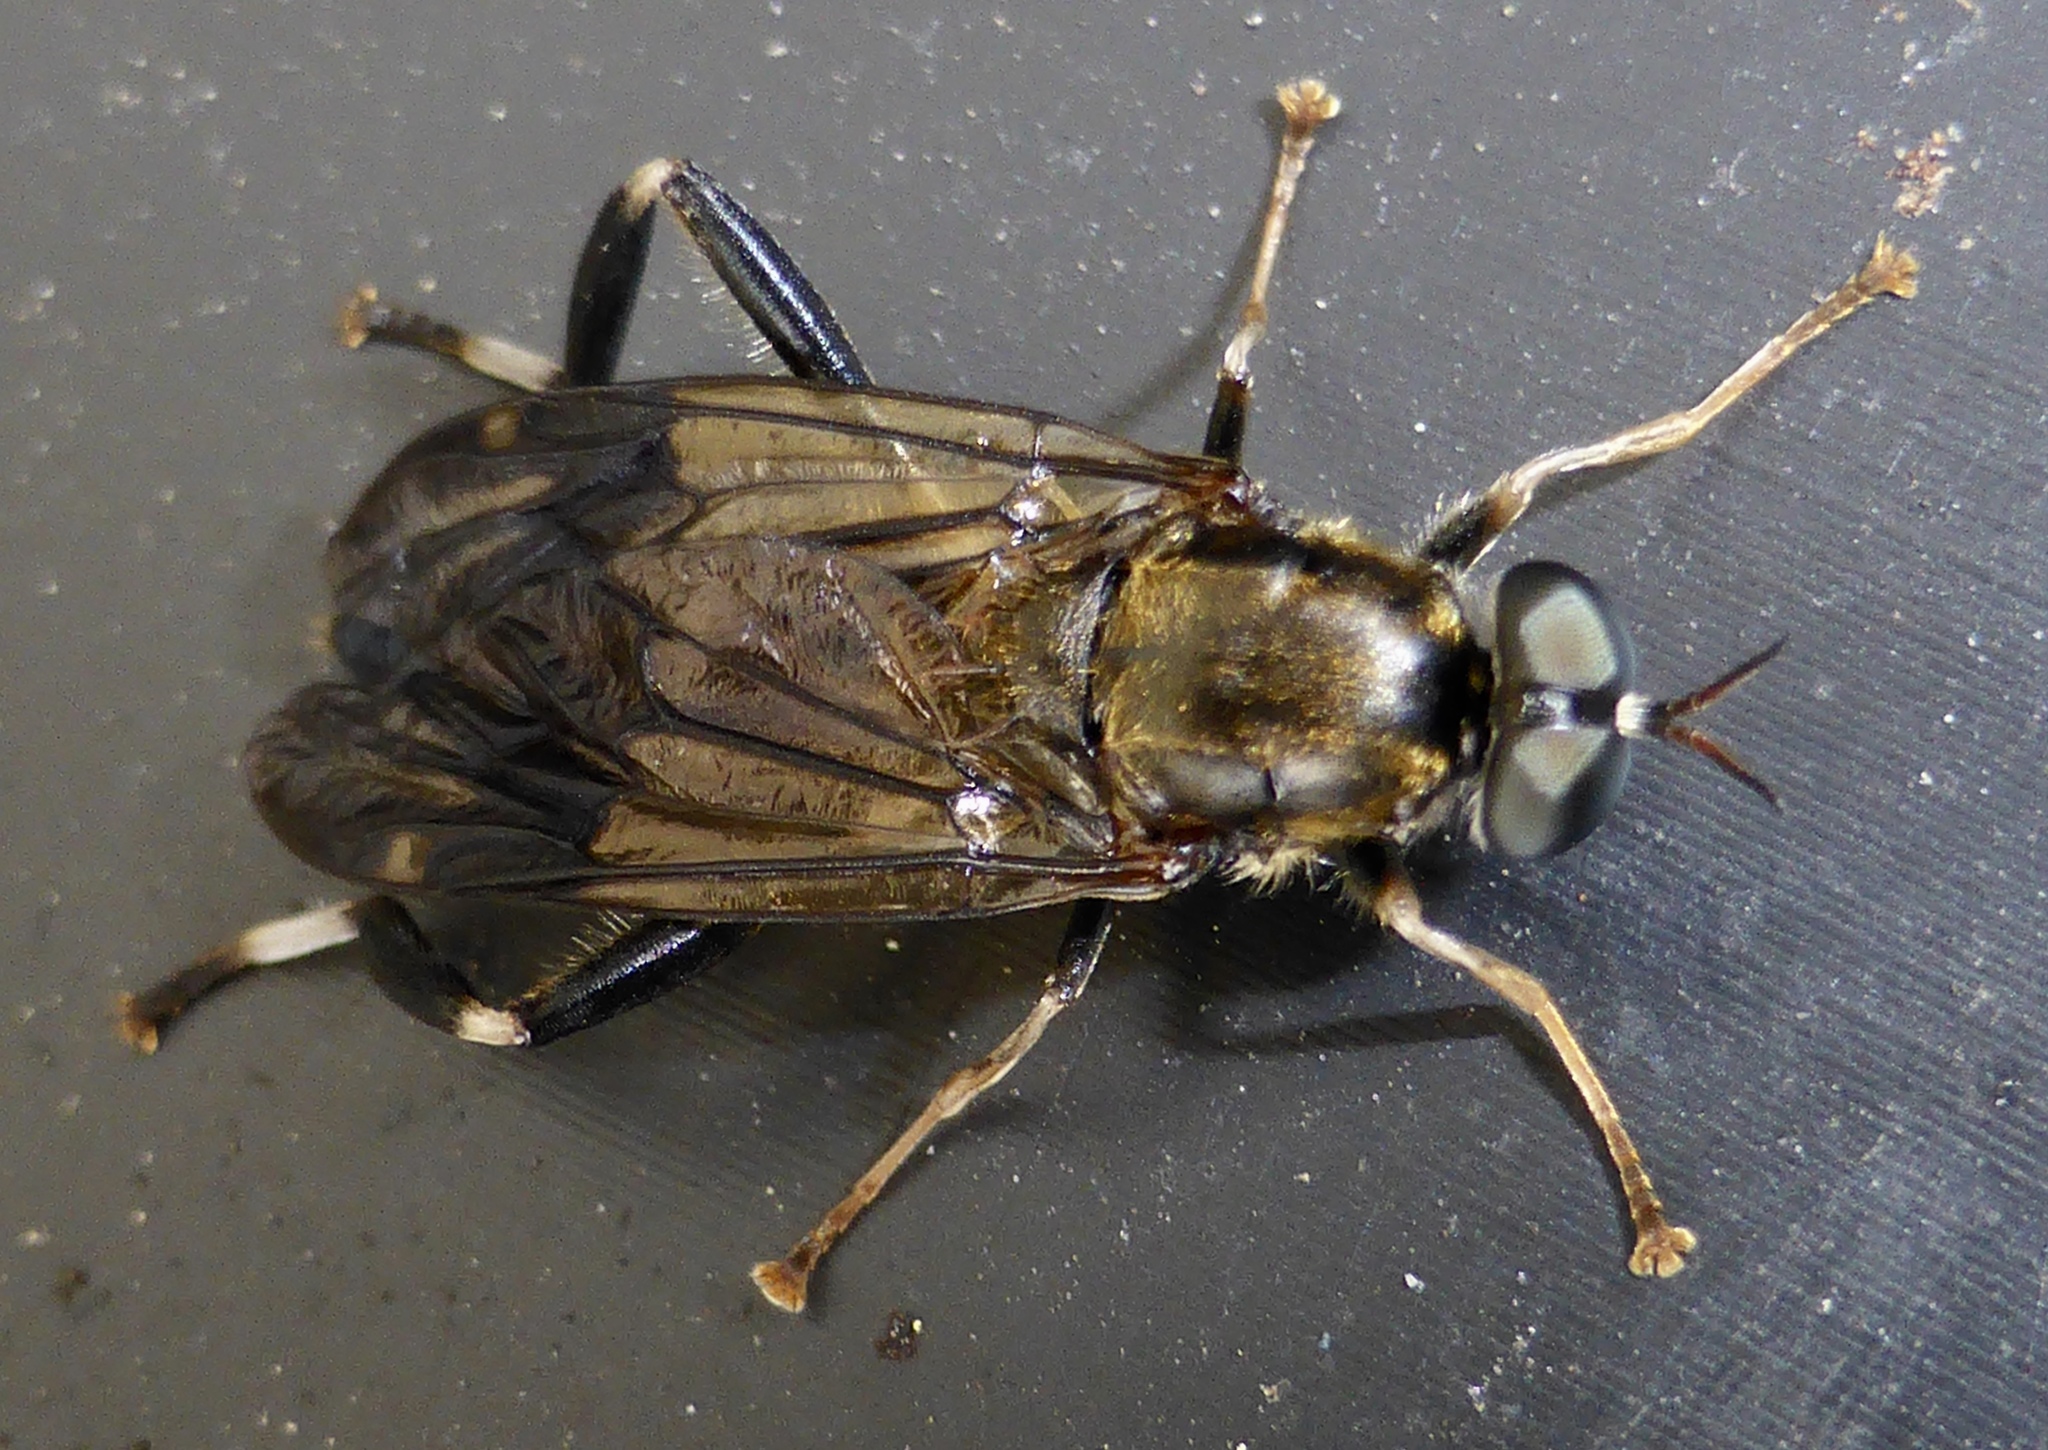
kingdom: Animalia
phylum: Arthropoda
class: Insecta
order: Diptera
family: Stratiomyidae
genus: Exaireta
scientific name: Exaireta spinigera
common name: Blue soldier fly
